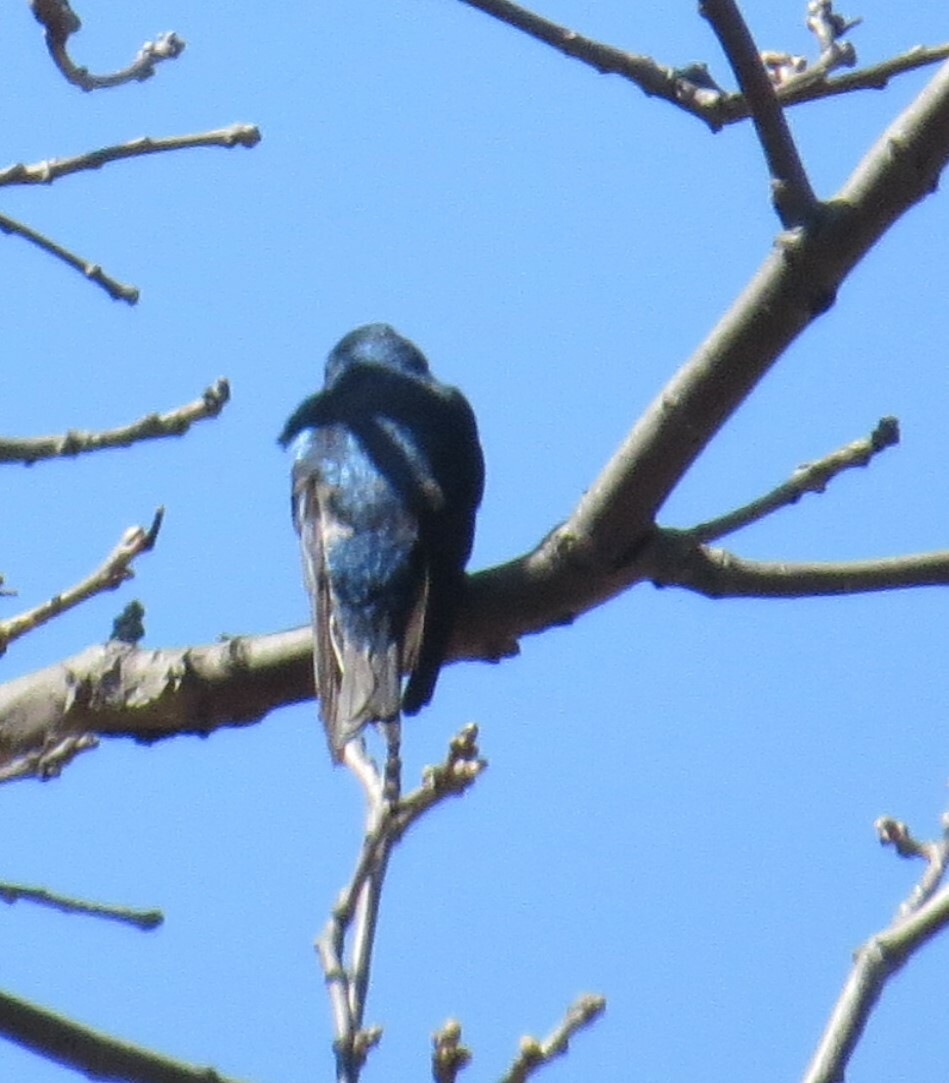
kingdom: Animalia
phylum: Chordata
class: Aves
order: Passeriformes
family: Hirundinidae
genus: Tachycineta
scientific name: Tachycineta bicolor
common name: Tree swallow
